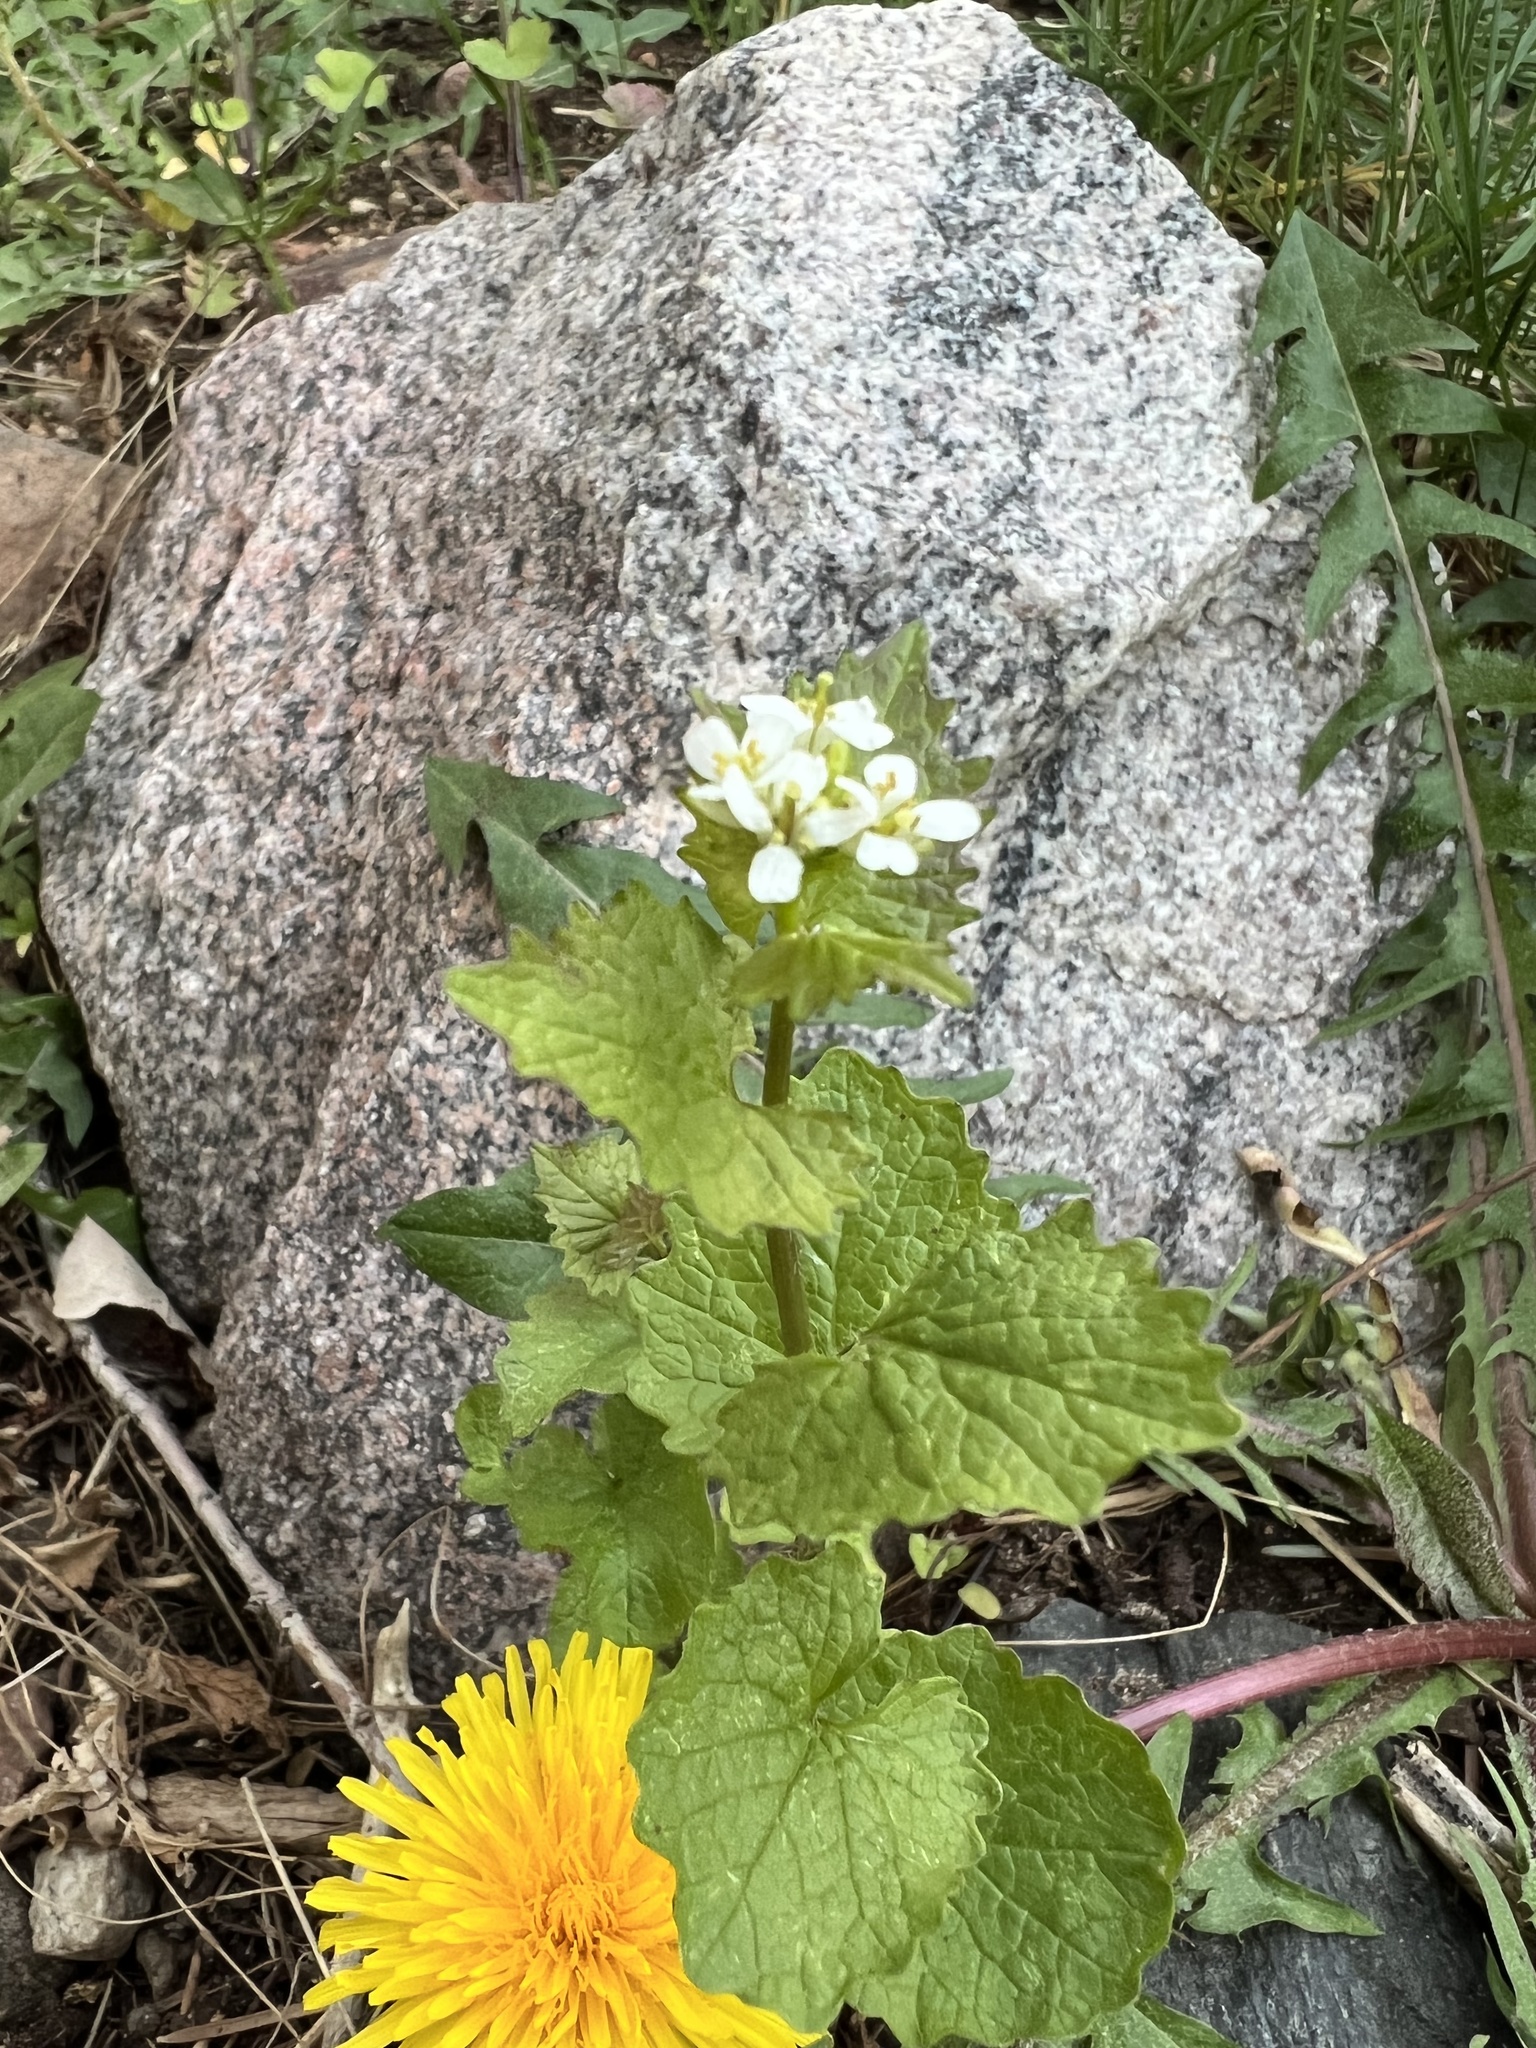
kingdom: Plantae
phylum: Tracheophyta
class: Magnoliopsida
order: Brassicales
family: Brassicaceae
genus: Alliaria
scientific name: Alliaria petiolata
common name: Garlic mustard
